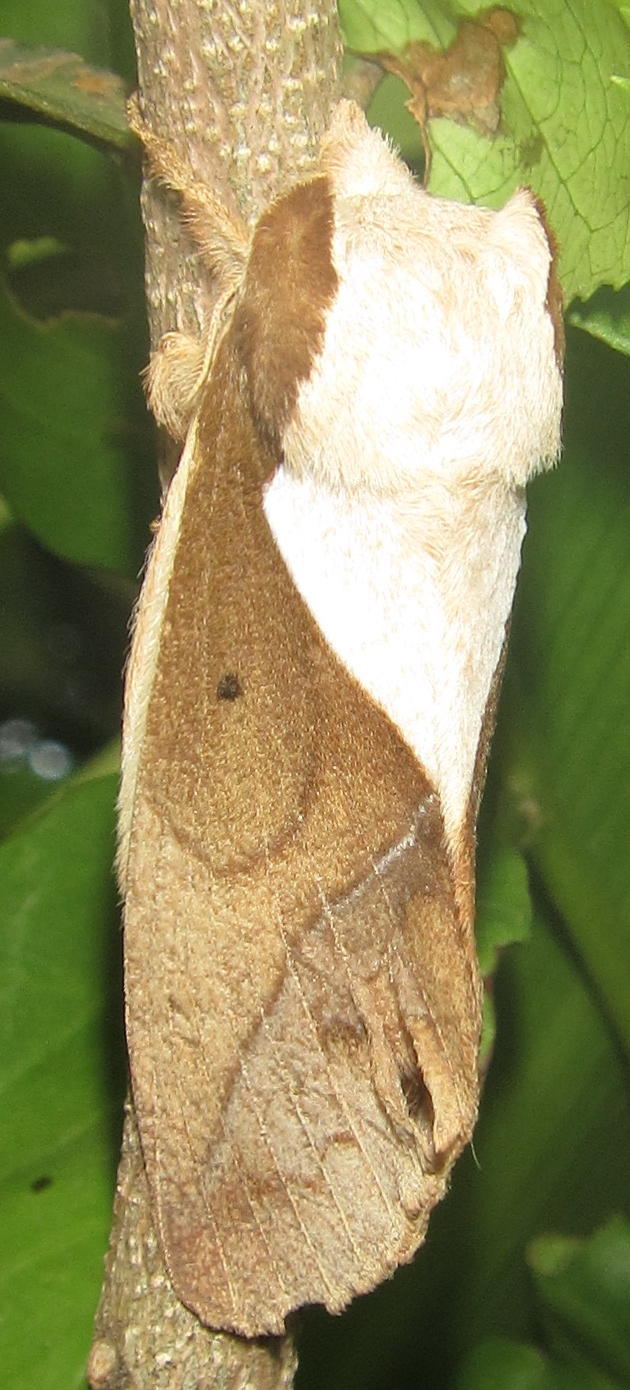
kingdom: Animalia
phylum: Arthropoda
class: Insecta
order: Lepidoptera
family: Lasiocampidae
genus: Stoermeriana
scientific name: Stoermeriana scapulosa
